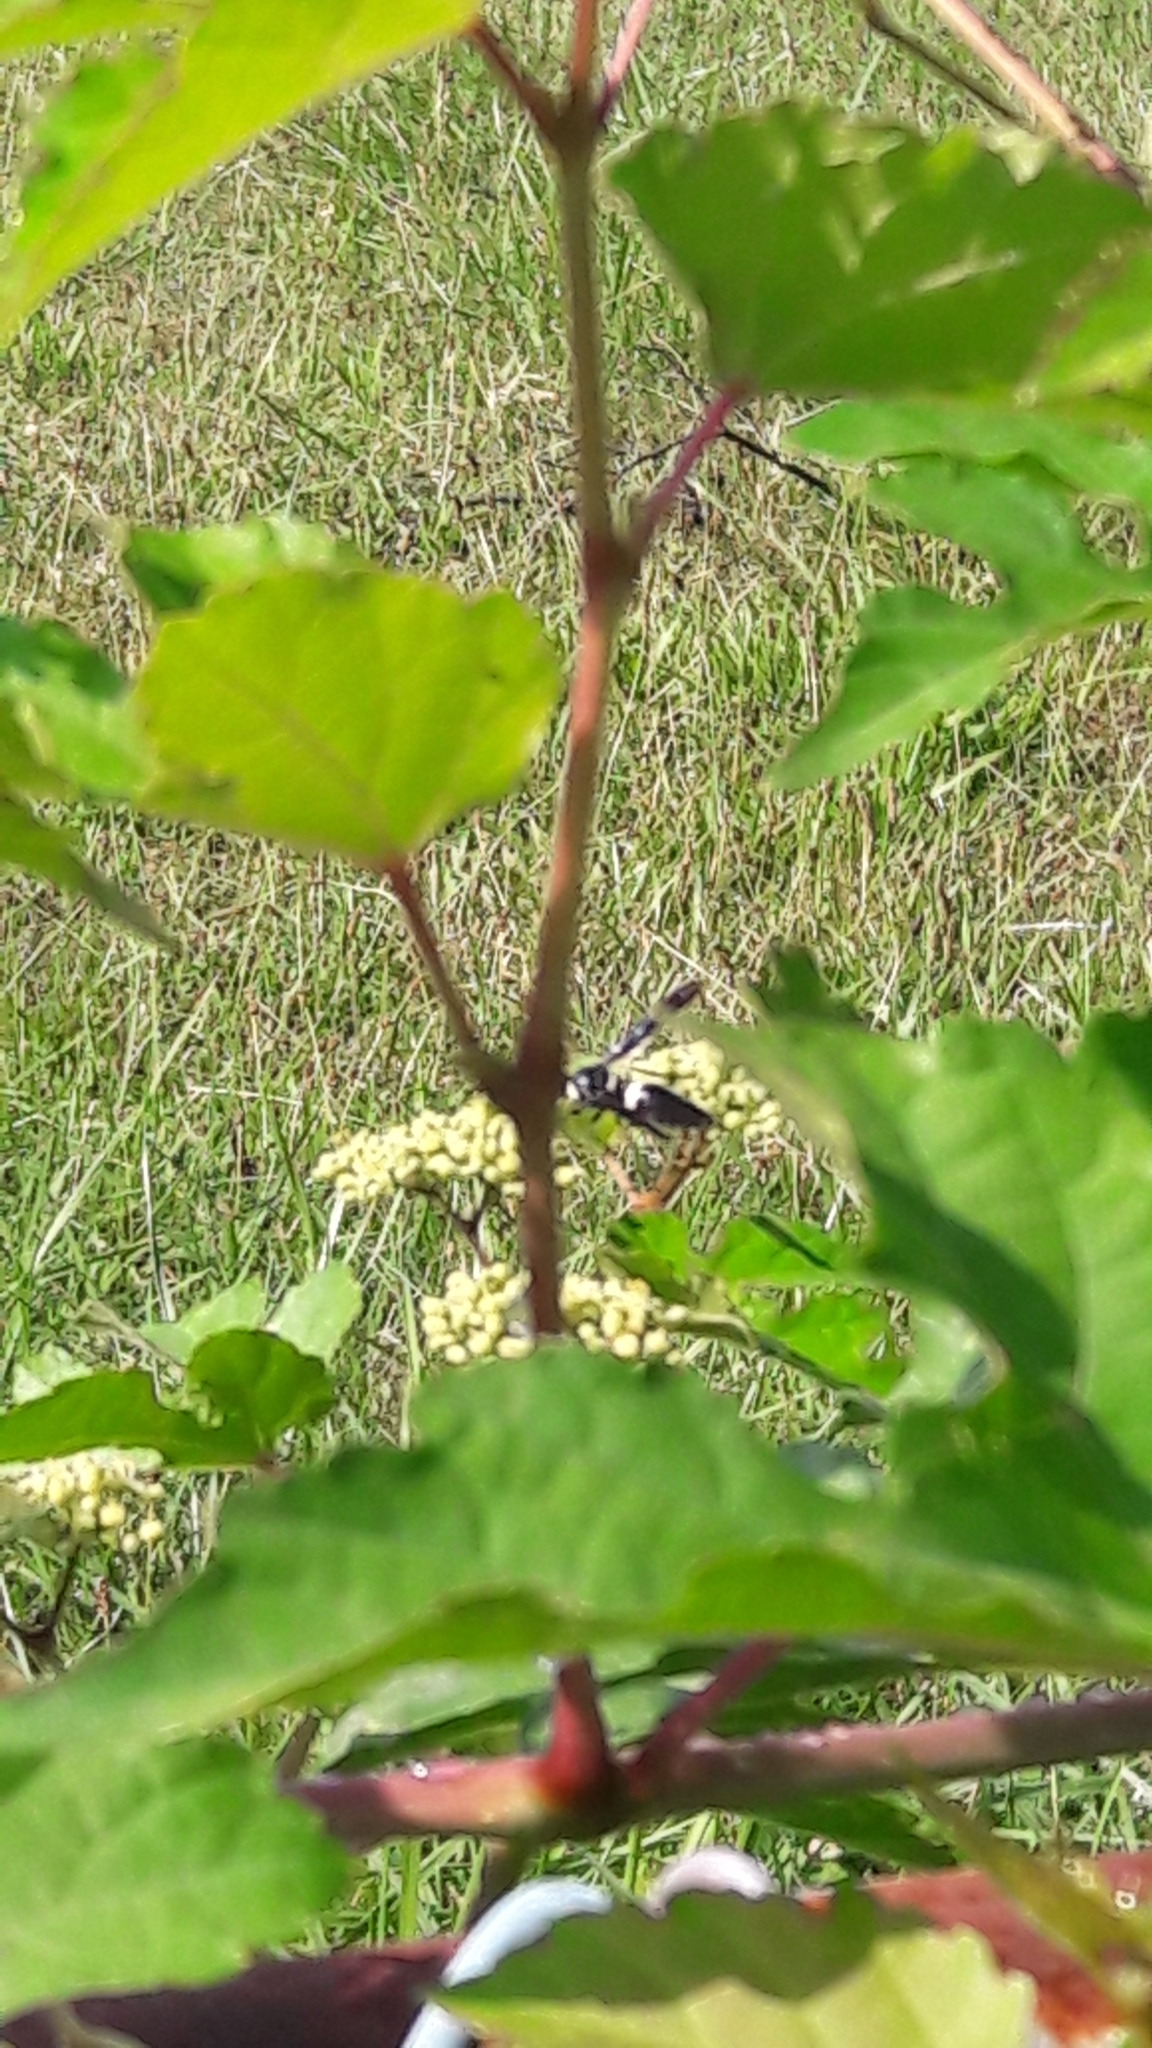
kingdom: Animalia
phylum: Arthropoda
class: Insecta
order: Hymenoptera
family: Eumenidae
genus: Monobia
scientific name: Monobia quadridens
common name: Four-toothed mason wasp
